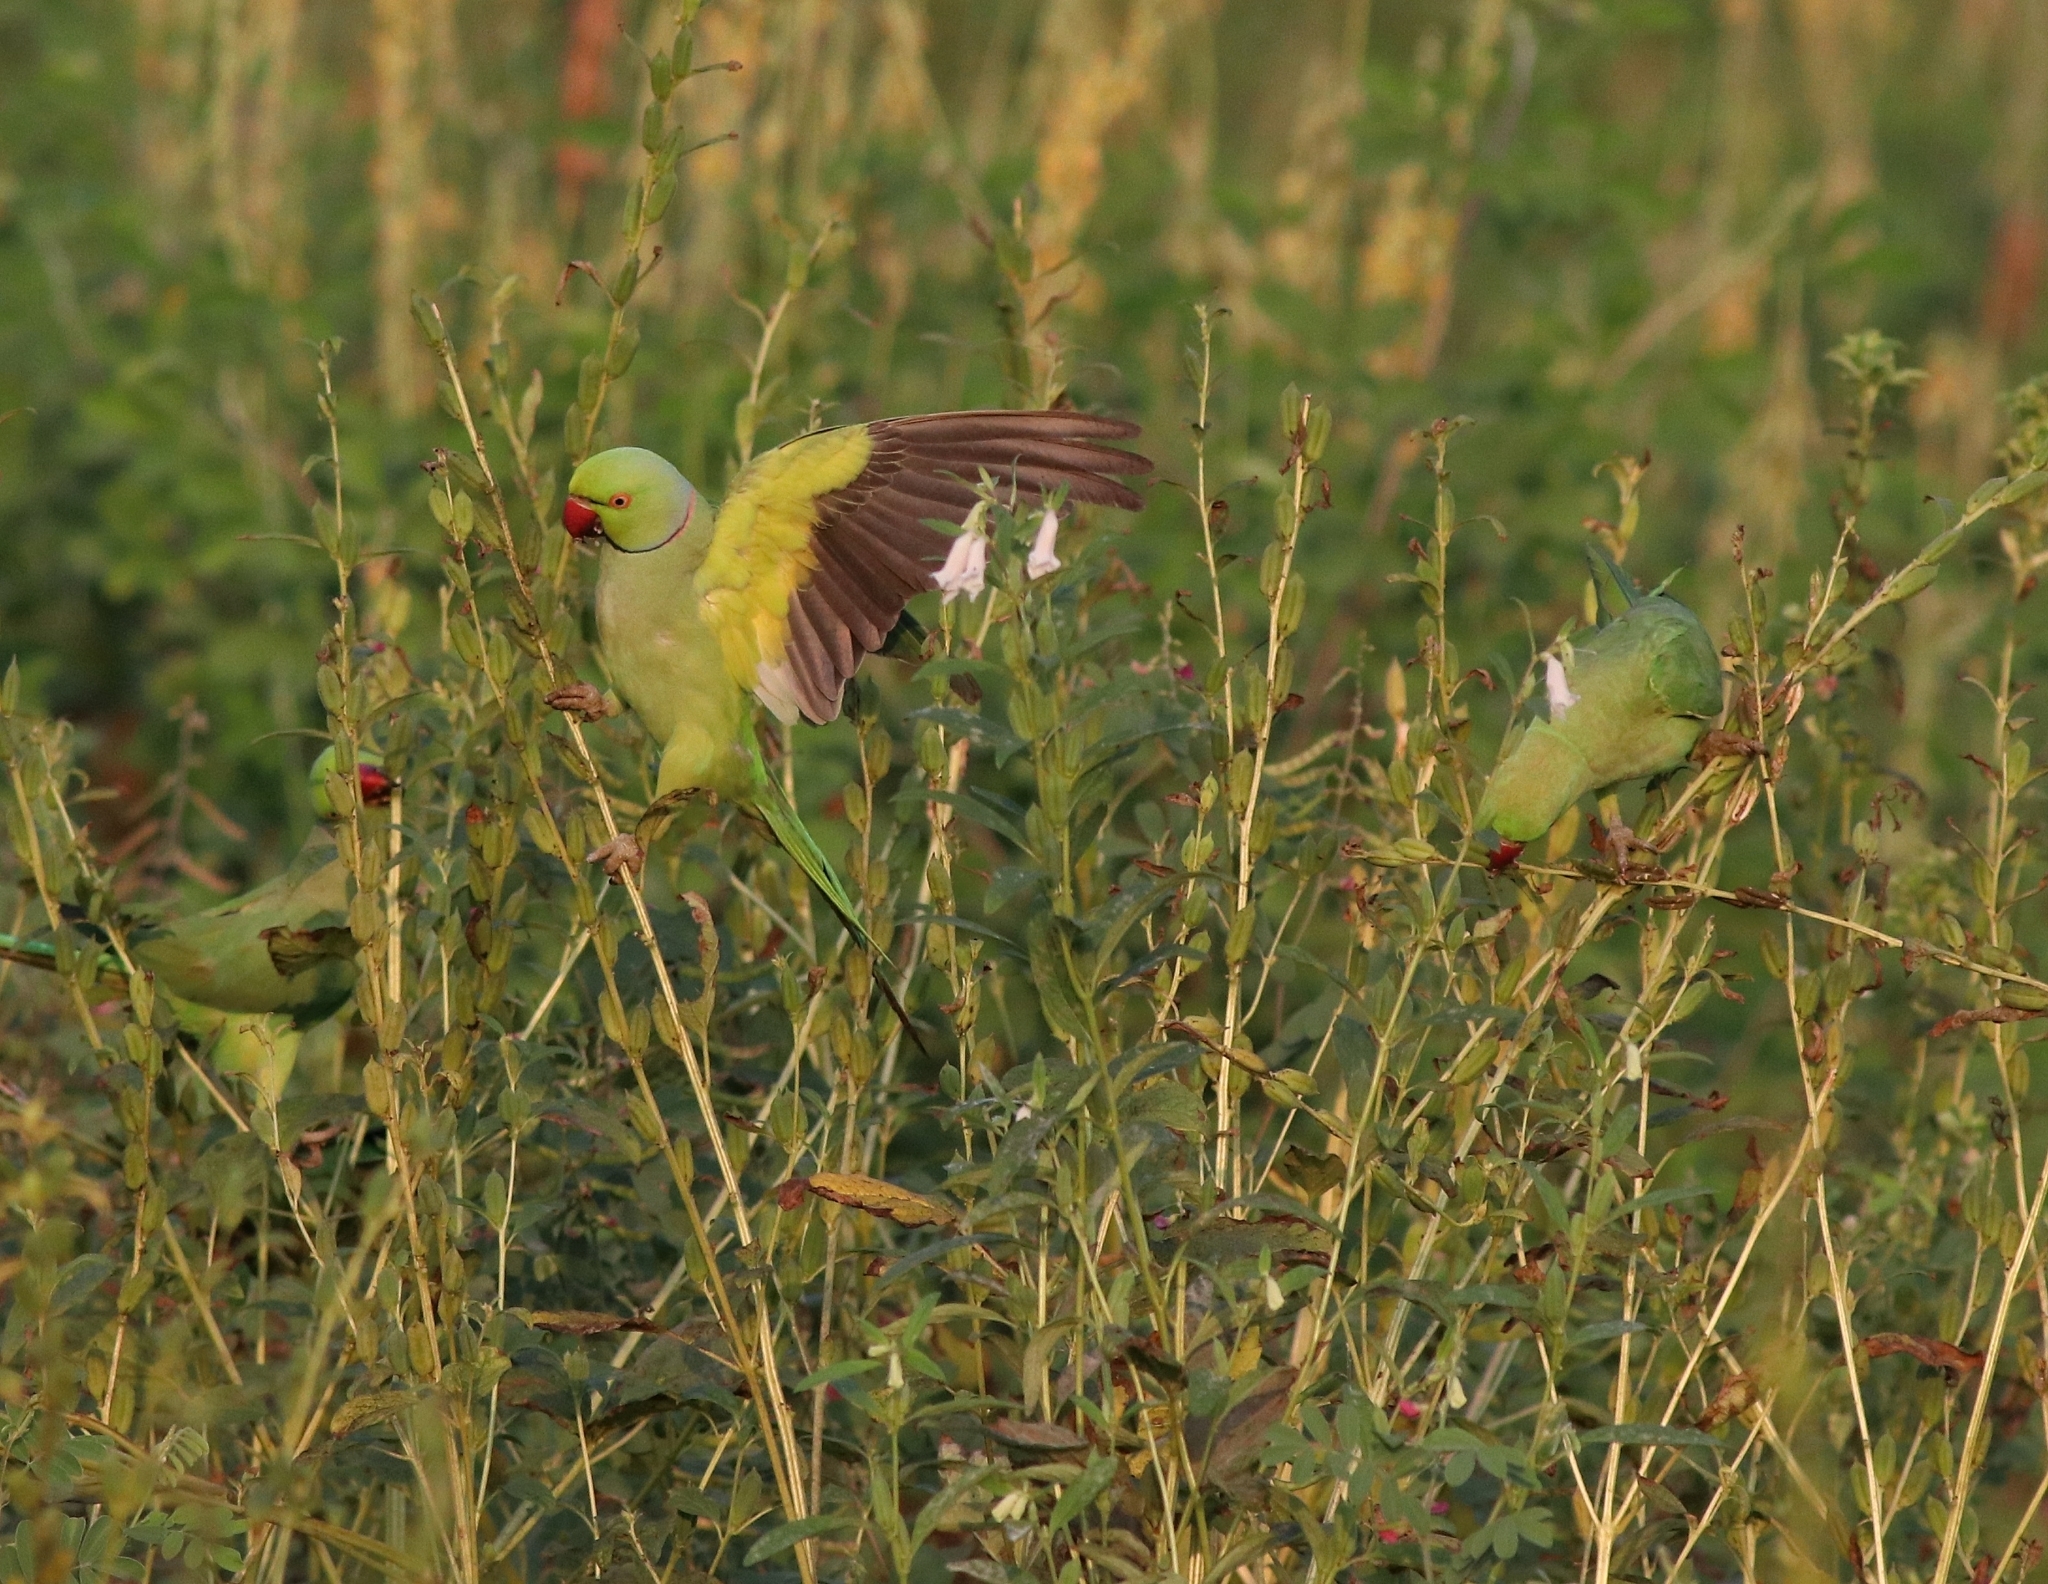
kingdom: Animalia
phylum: Chordata
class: Aves
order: Psittaciformes
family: Psittacidae
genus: Psittacula
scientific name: Psittacula krameri
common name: Rose-ringed parakeet
